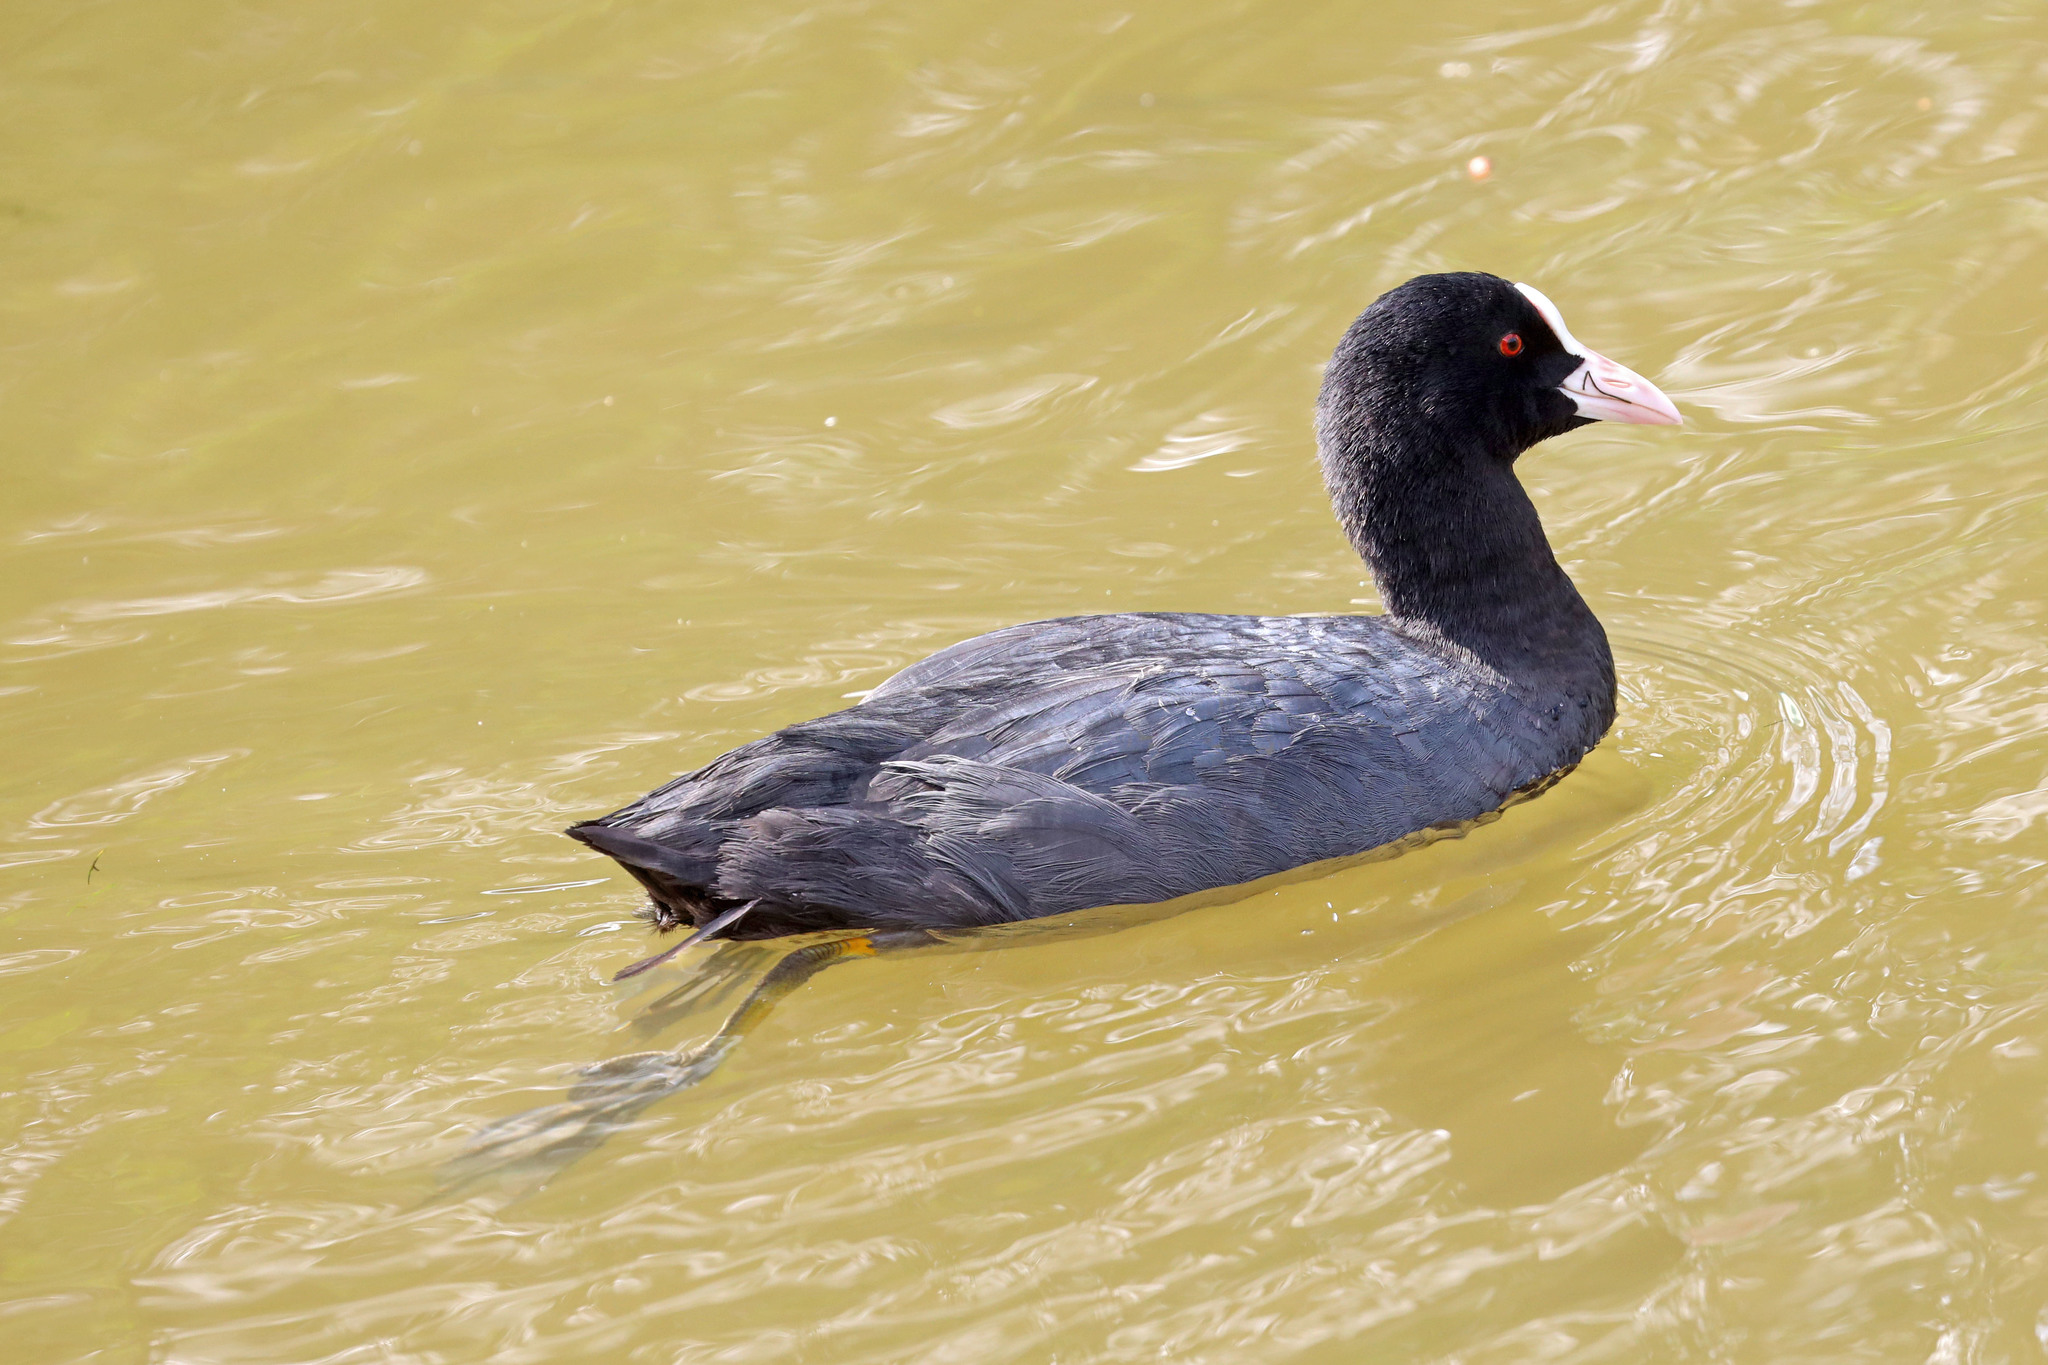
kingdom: Animalia
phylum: Chordata
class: Aves
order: Gruiformes
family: Rallidae
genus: Fulica
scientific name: Fulica atra
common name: Eurasian coot
